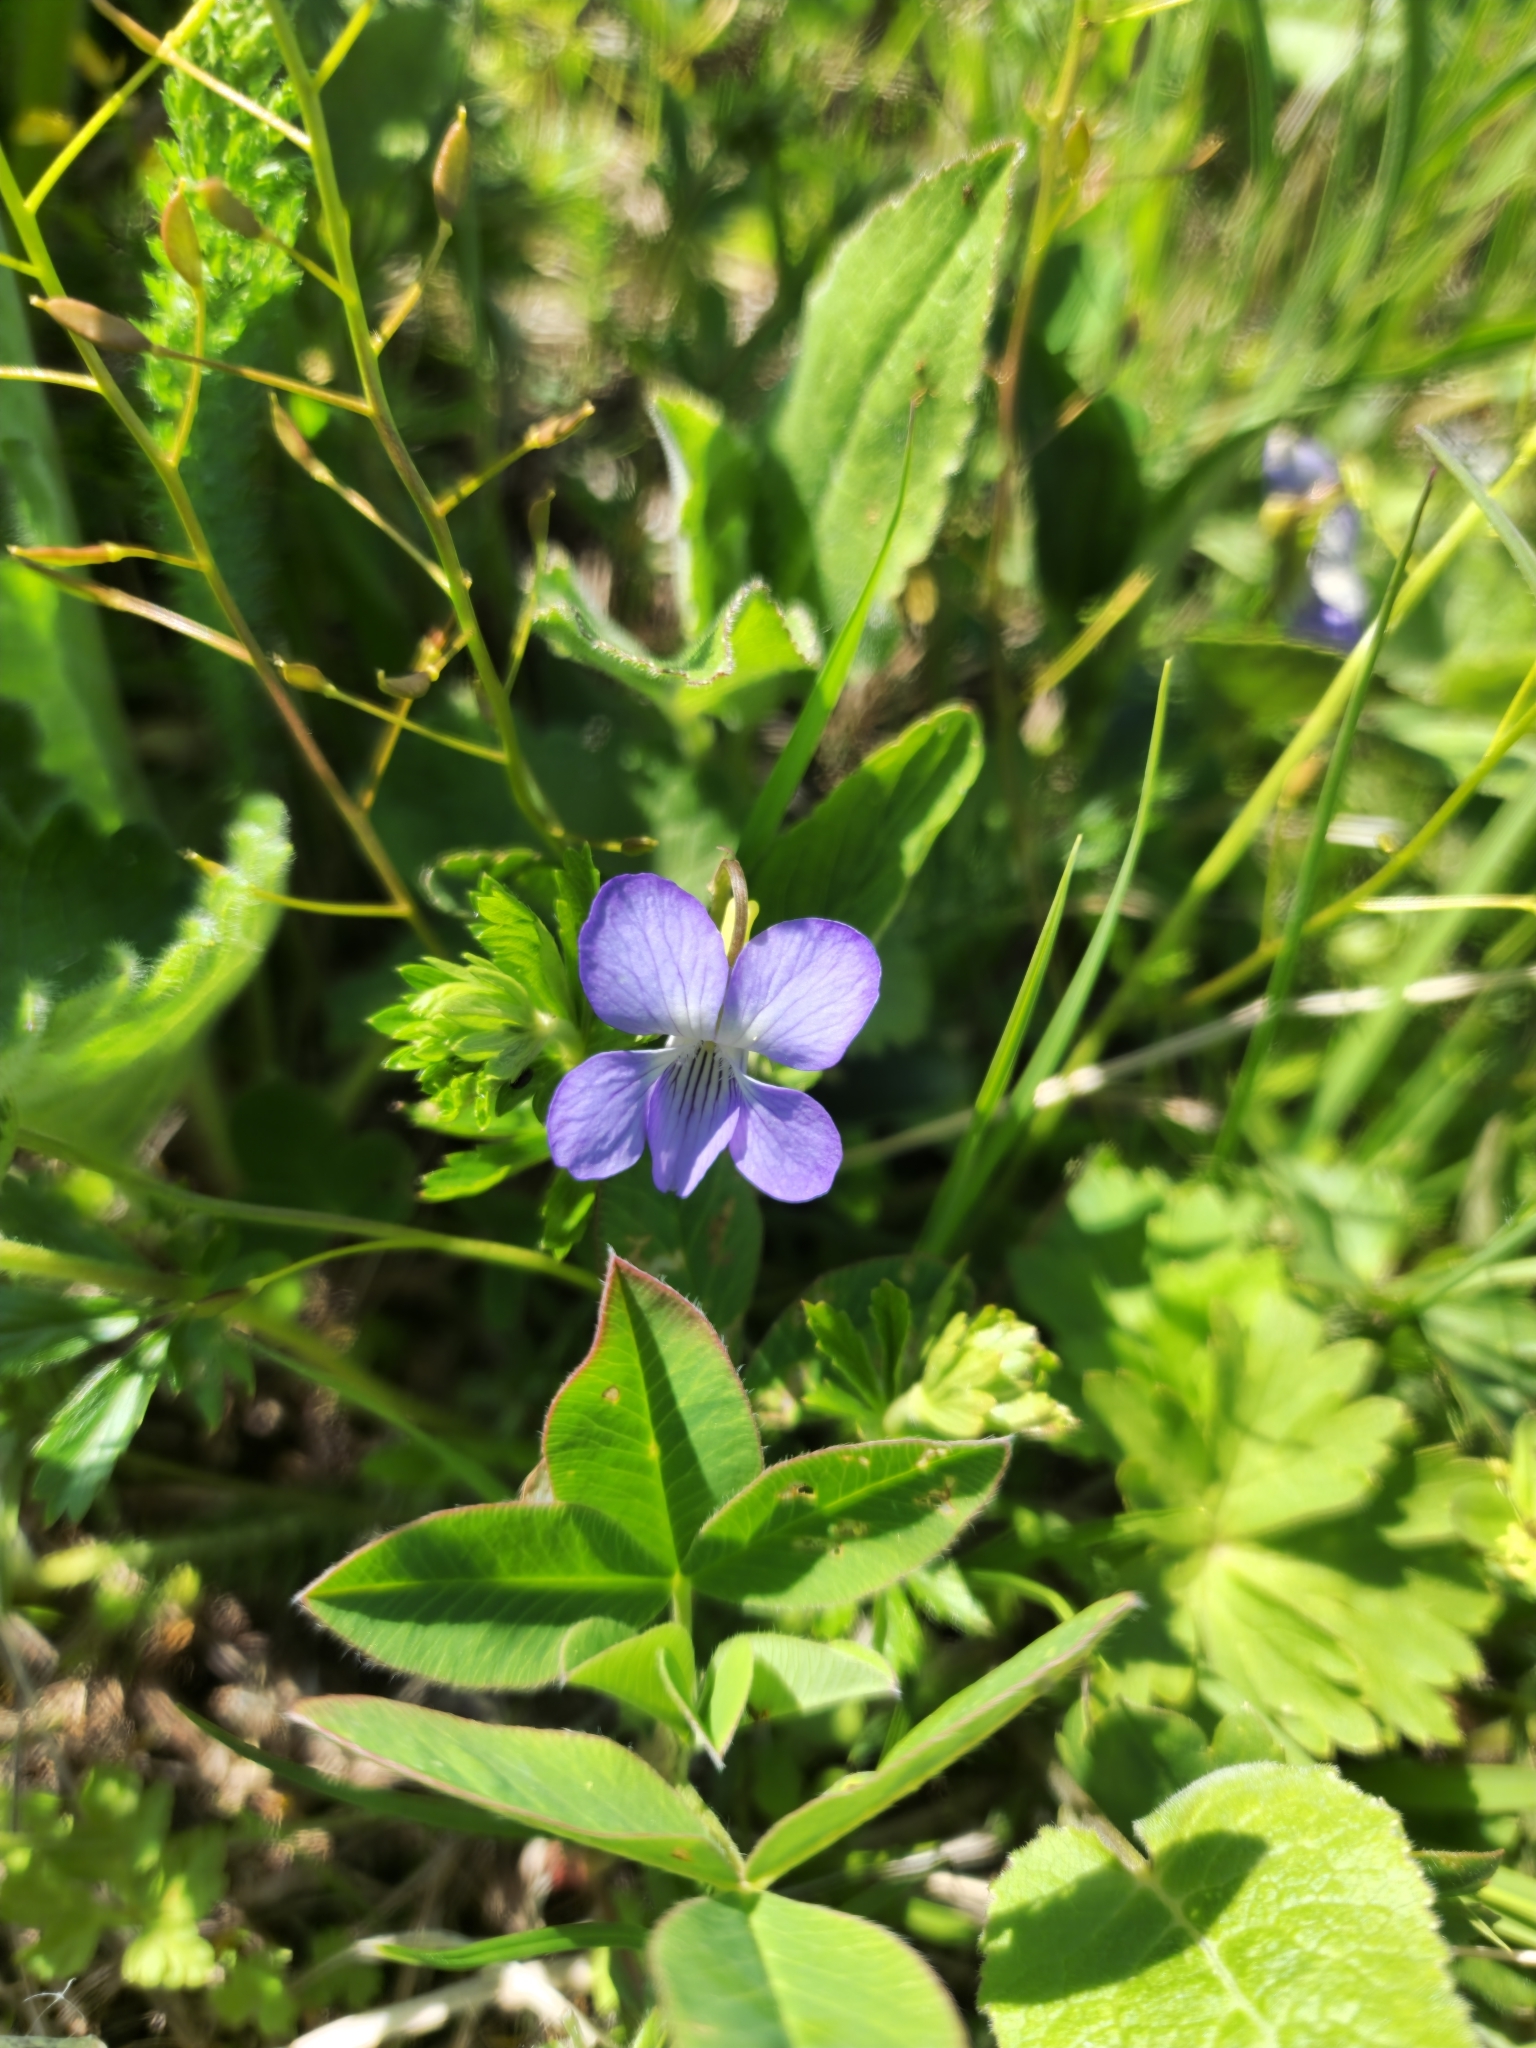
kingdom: Plantae
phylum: Tracheophyta
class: Magnoliopsida
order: Malpighiales
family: Violaceae
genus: Viola
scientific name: Viola canina
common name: Heath dog-violet
